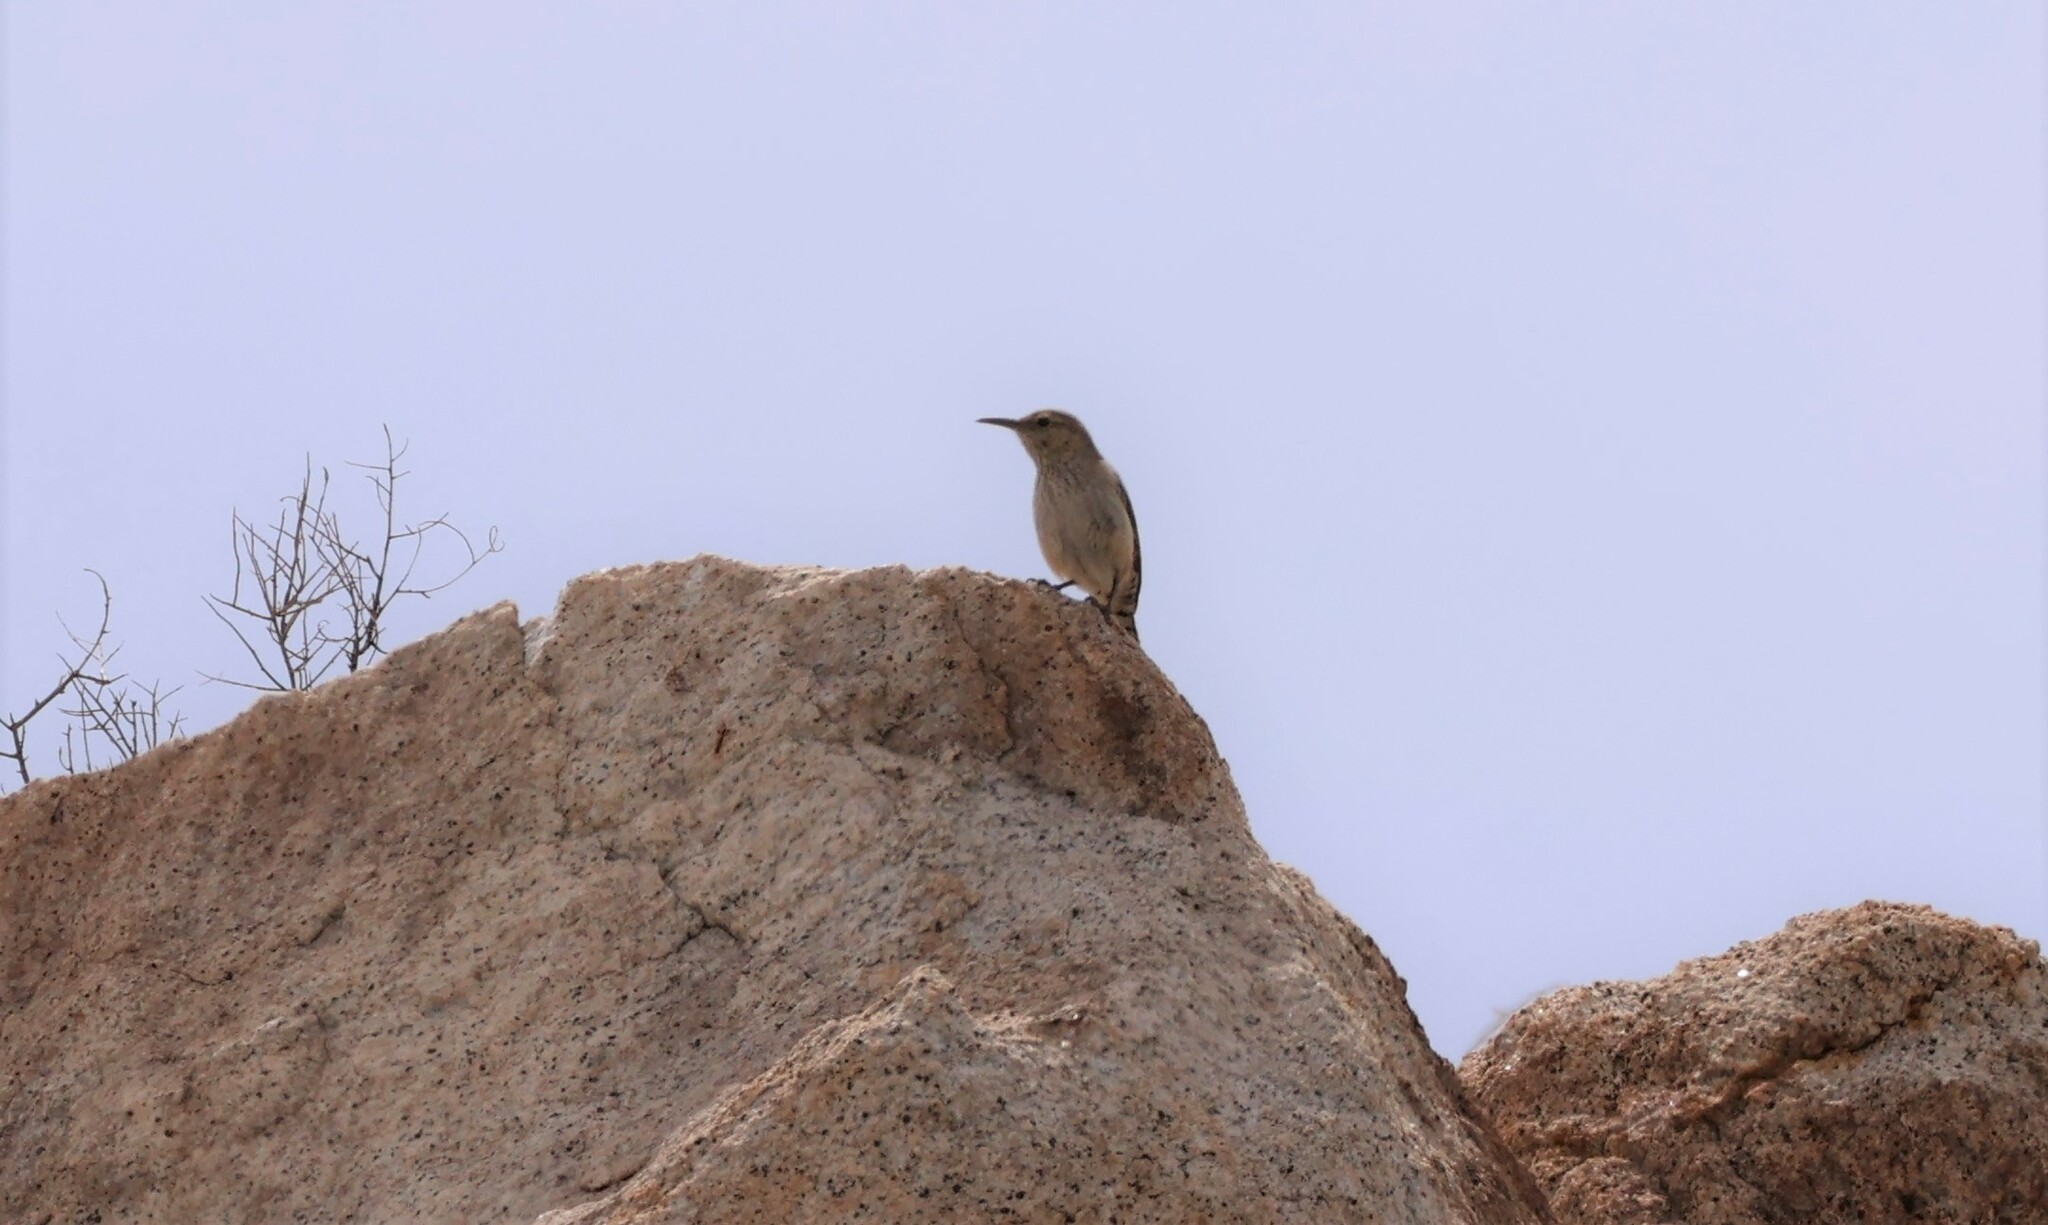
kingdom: Animalia
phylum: Chordata
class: Aves
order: Passeriformes
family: Troglodytidae
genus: Salpinctes
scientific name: Salpinctes obsoletus
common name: Rock wren
